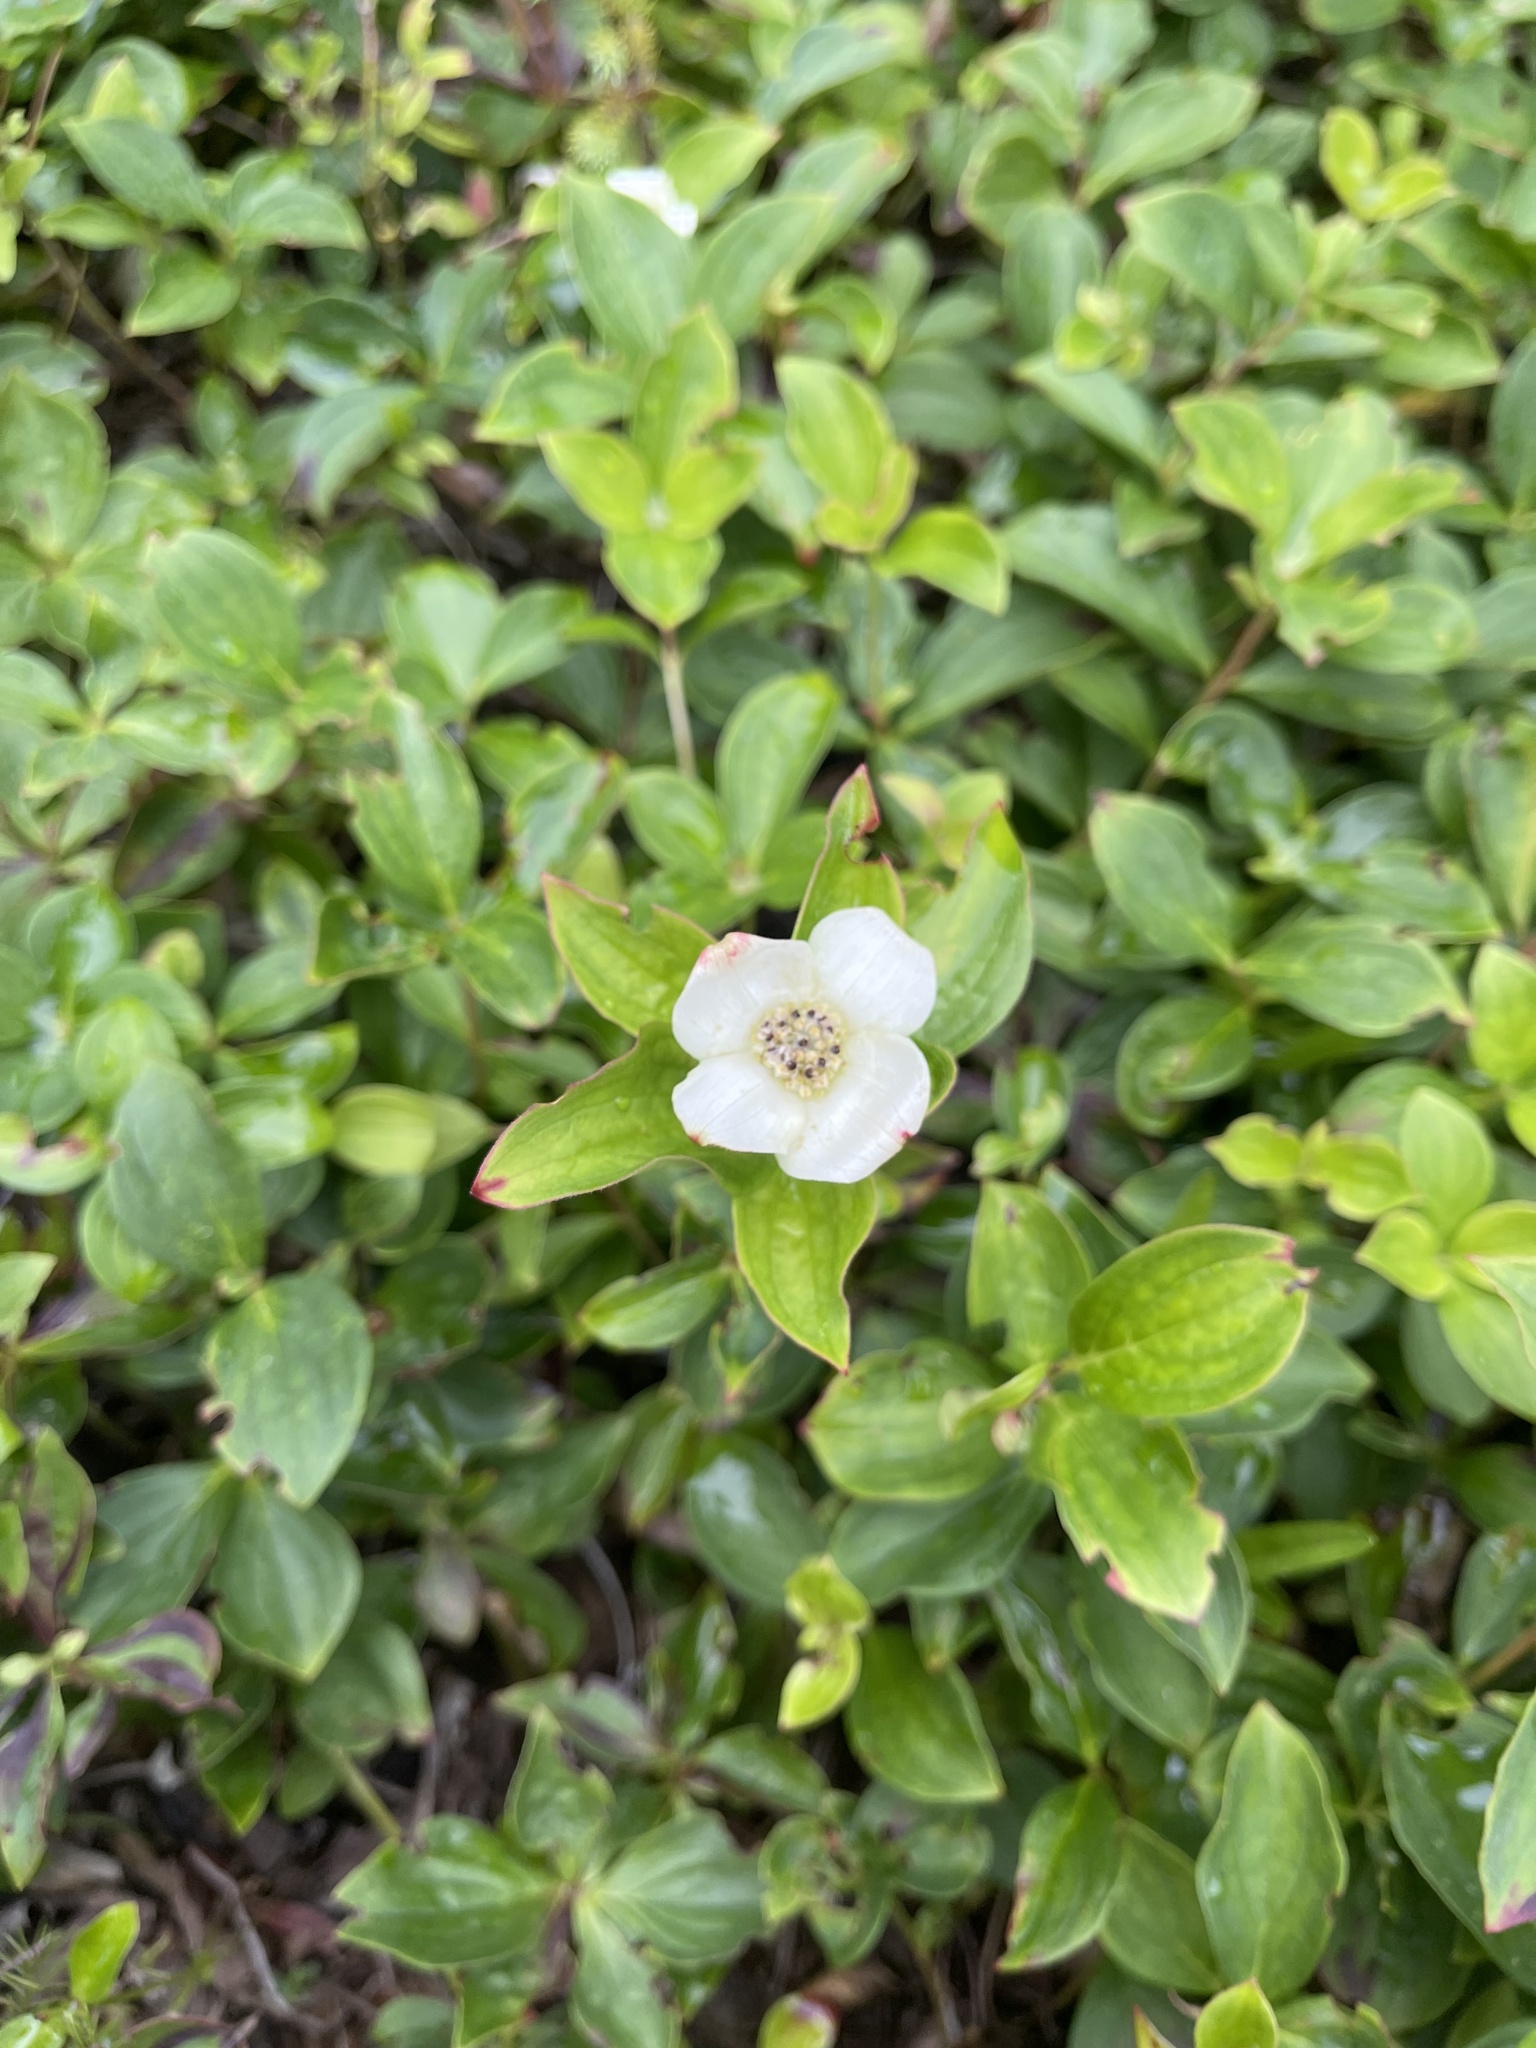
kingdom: Plantae
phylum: Tracheophyta
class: Magnoliopsida
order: Cornales
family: Cornaceae
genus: Cornus
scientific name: Cornus canadensis
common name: Creeping dogwood
